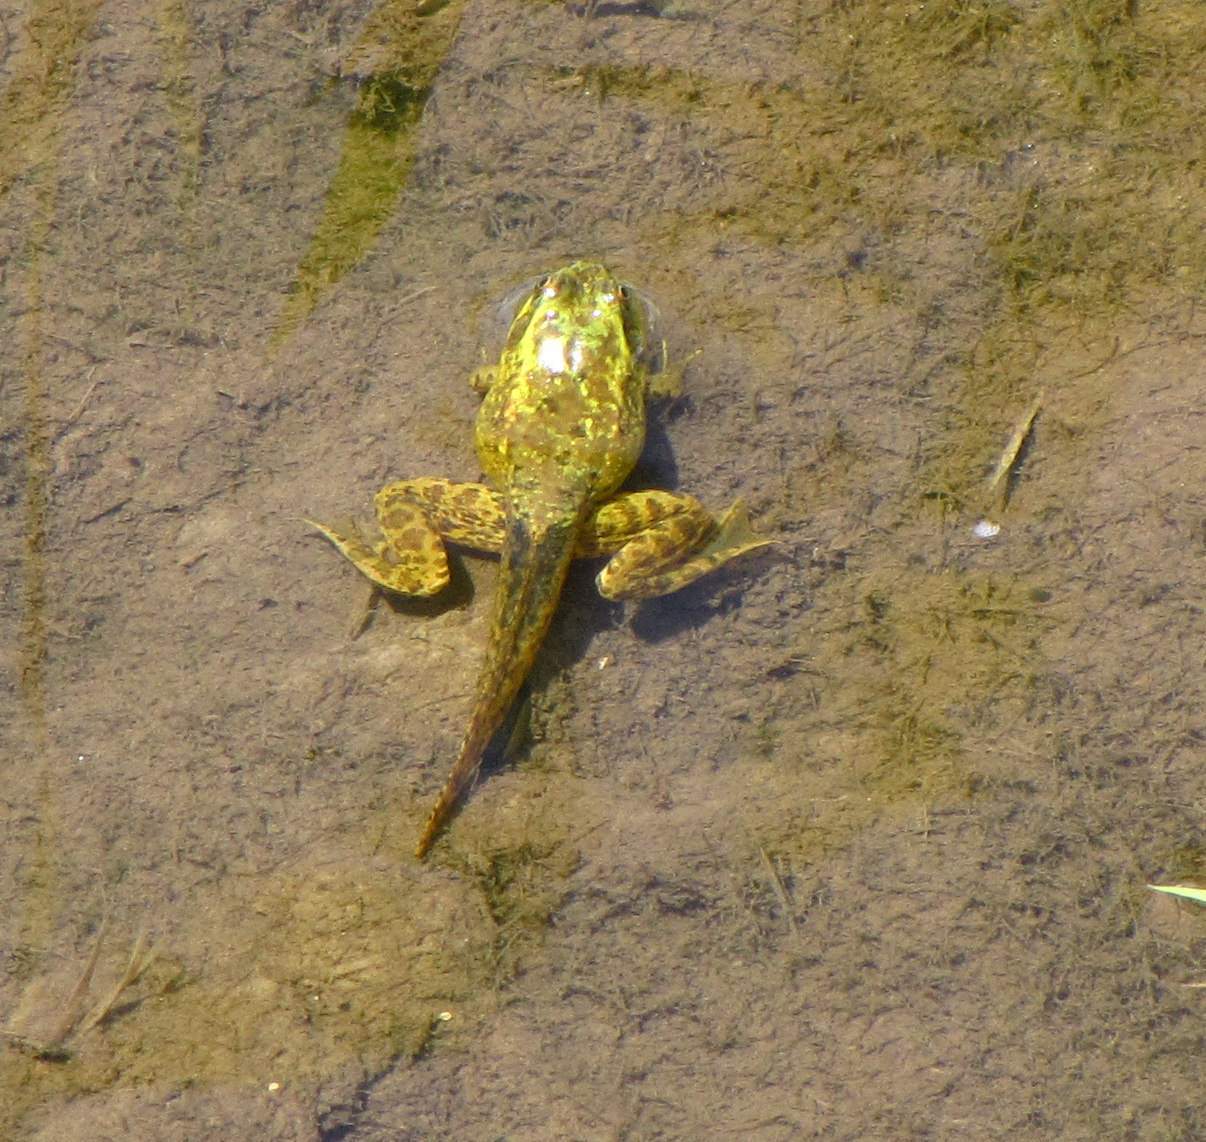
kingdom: Animalia
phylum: Chordata
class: Amphibia
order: Anura
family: Ranidae
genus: Lithobates
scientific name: Lithobates clamitans
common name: Green frog
